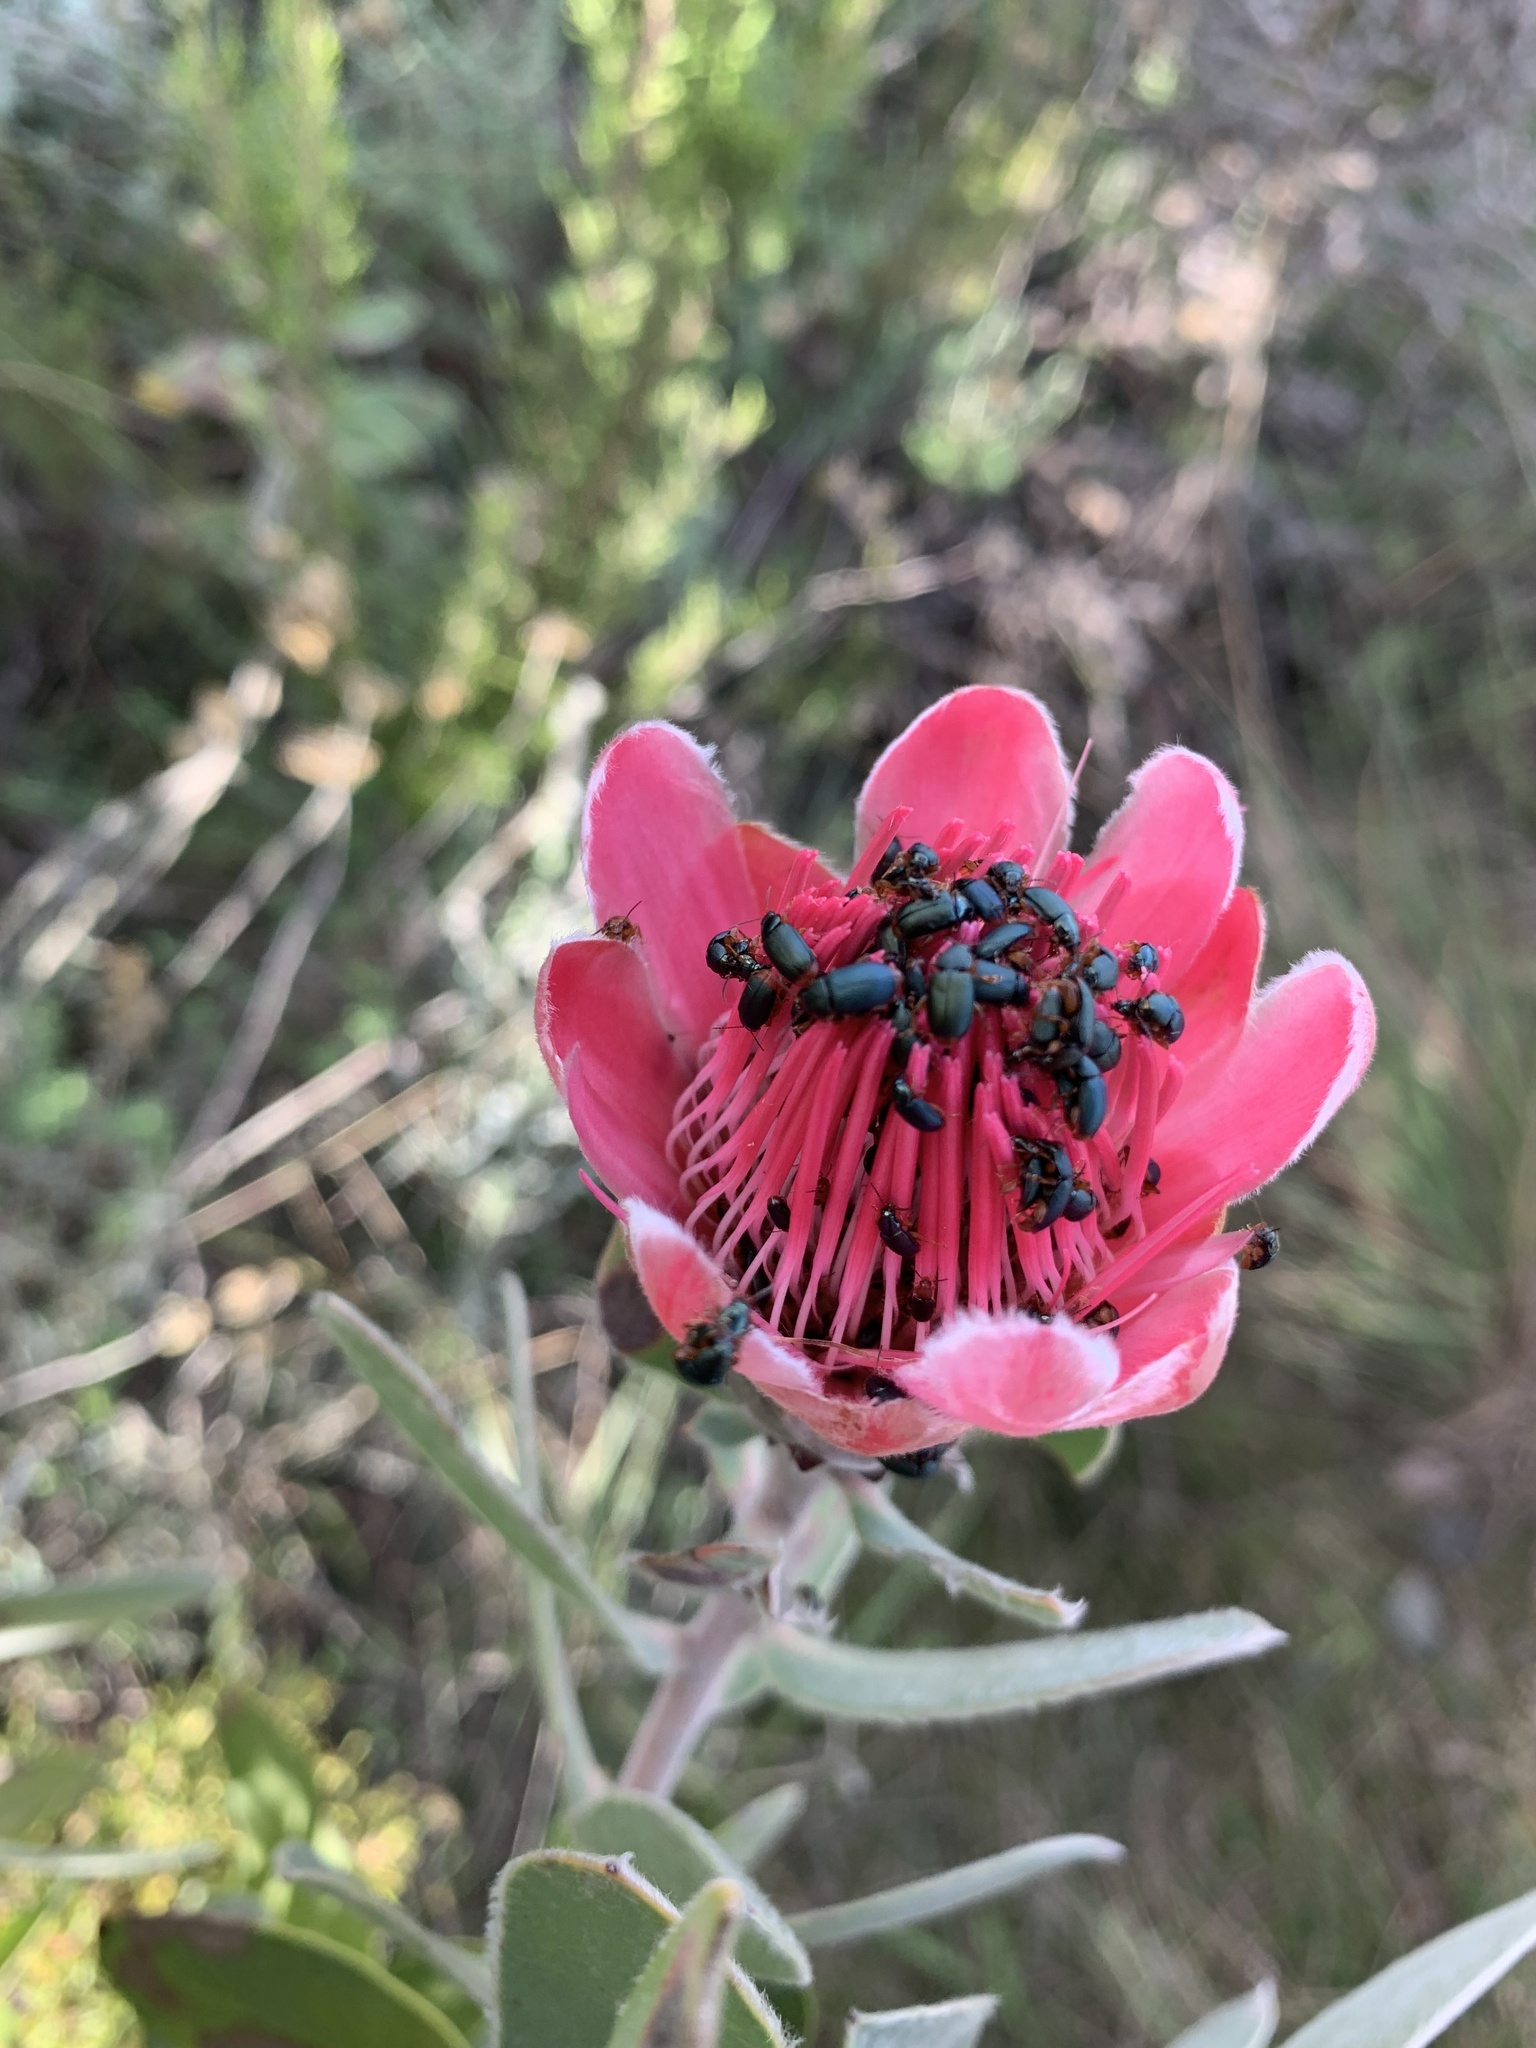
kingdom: Plantae
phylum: Tracheophyta
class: Magnoliopsida
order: Proteales
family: Proteaceae
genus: Protea
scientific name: Protea punctata
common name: Water sugarbush
